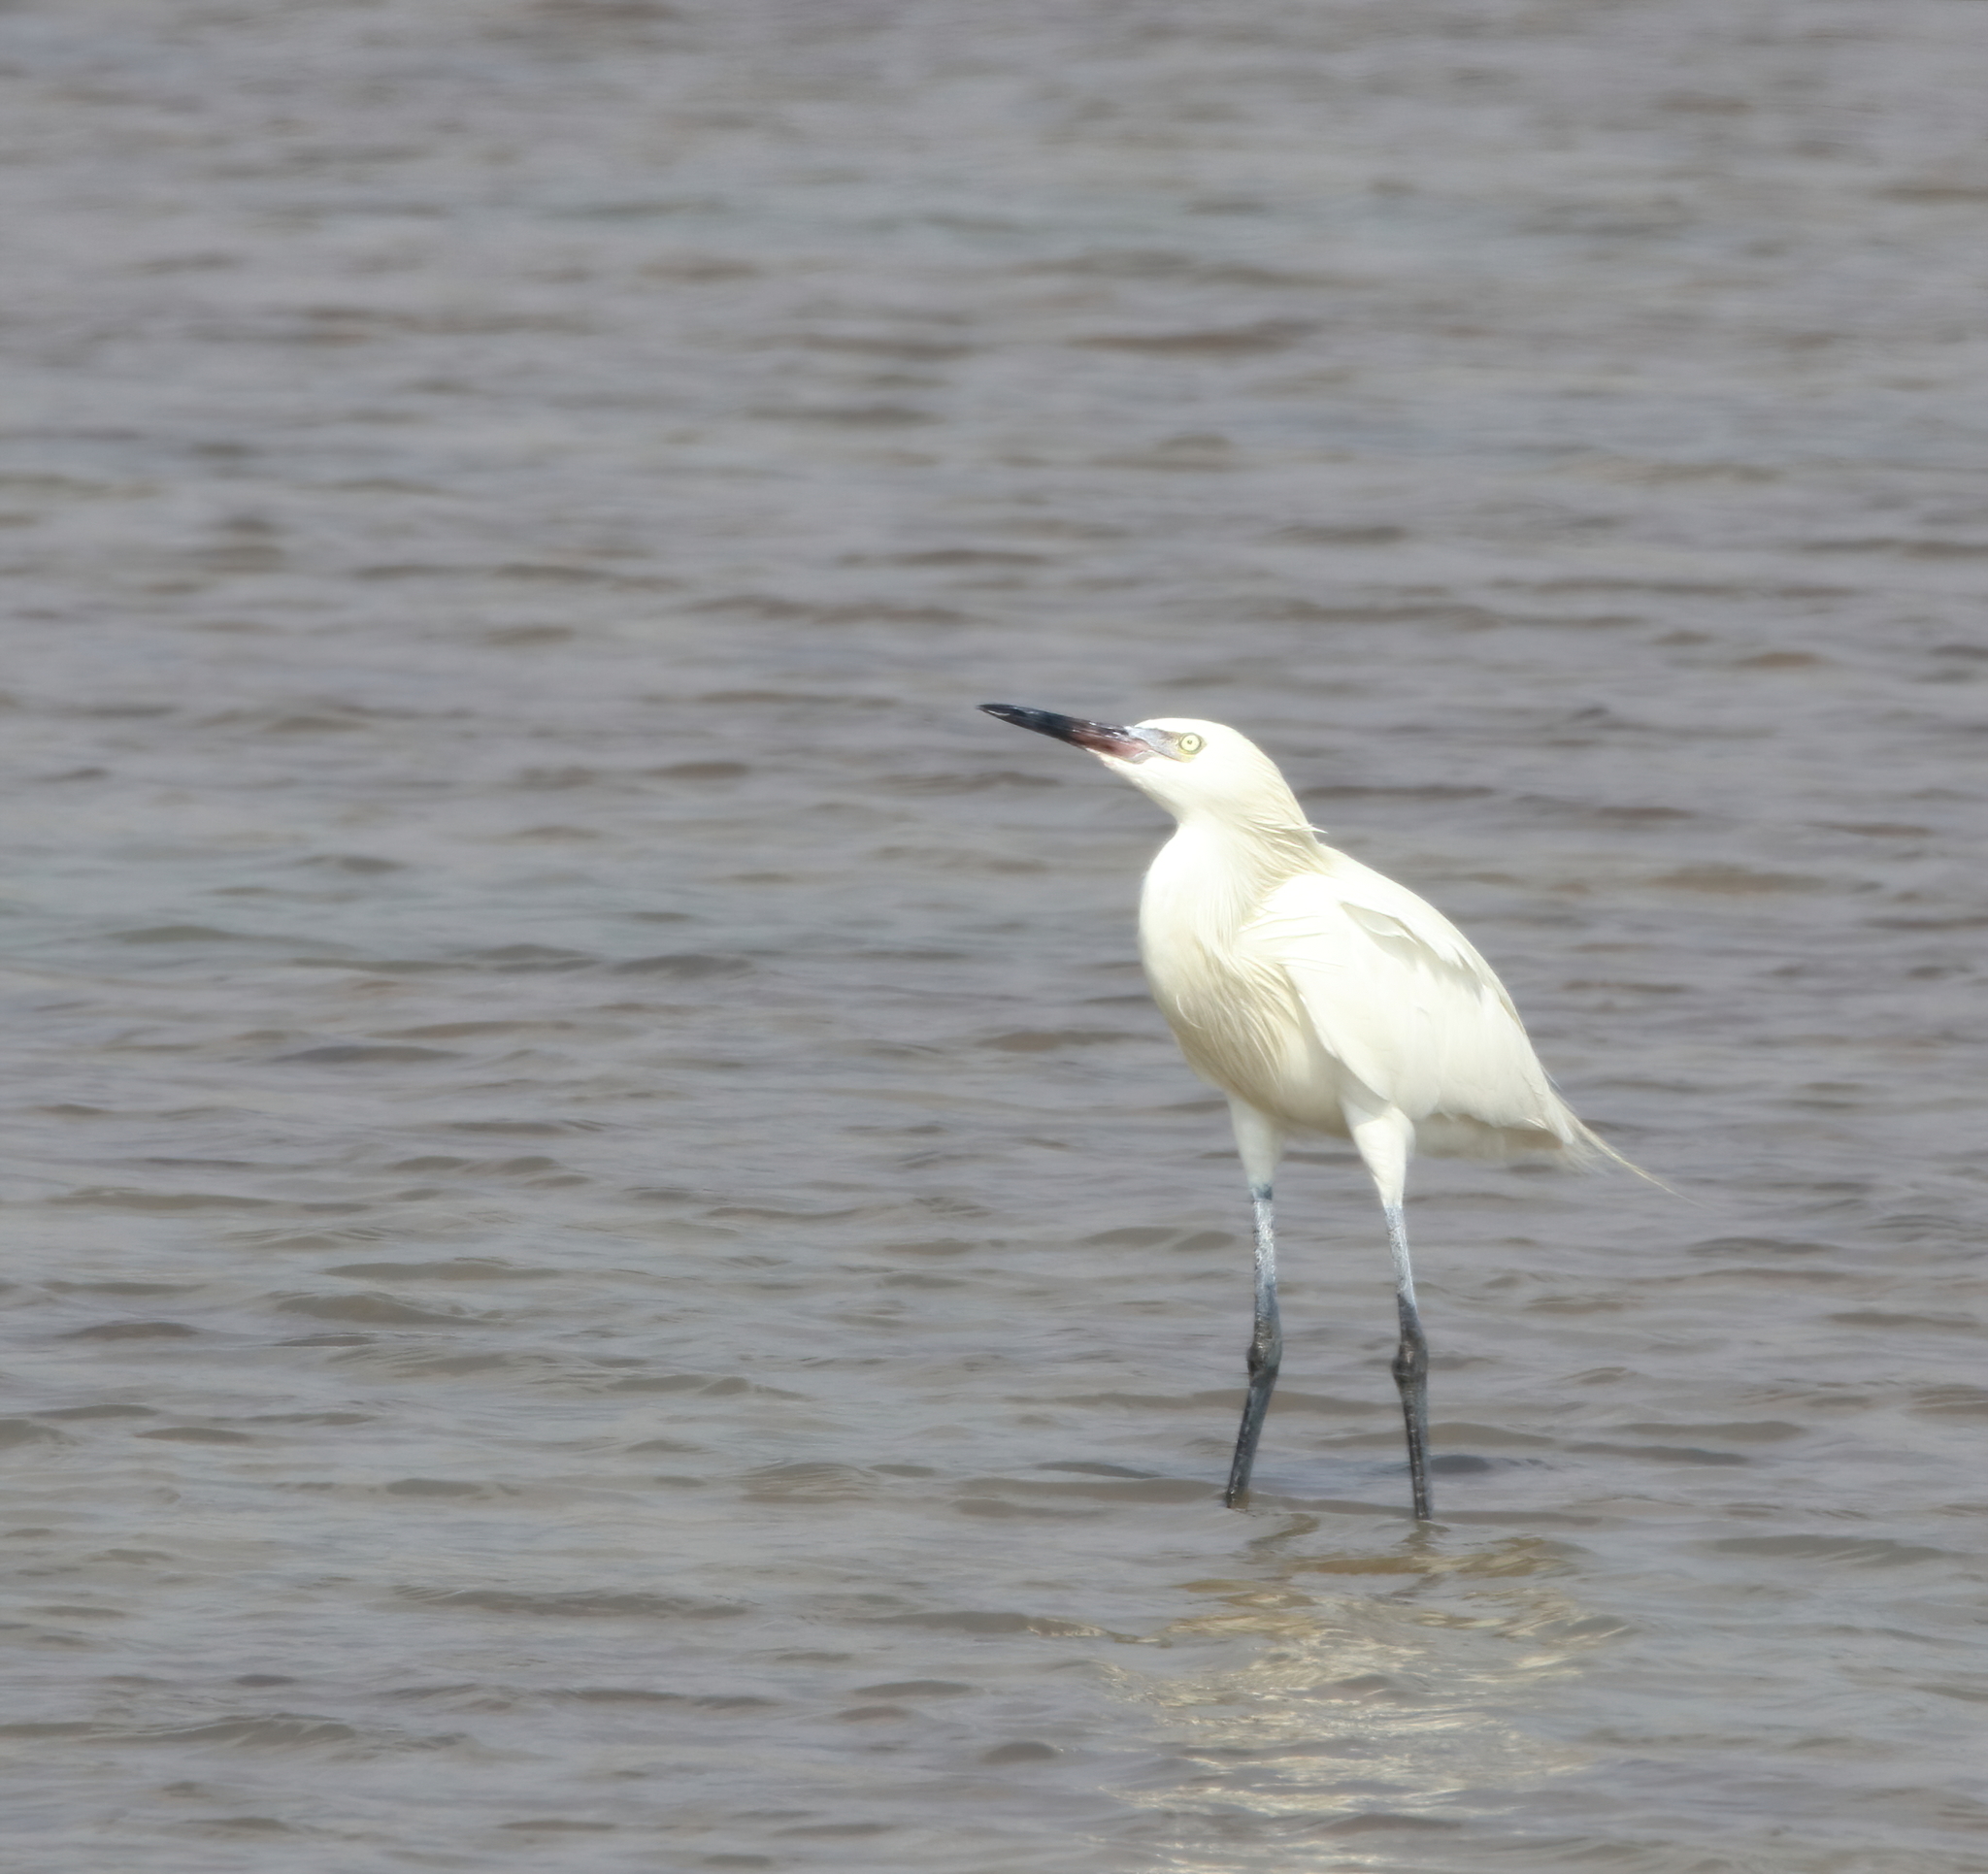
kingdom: Animalia
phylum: Chordata
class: Aves
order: Pelecaniformes
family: Ardeidae
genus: Egretta
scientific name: Egretta rufescens
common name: Reddish egret
